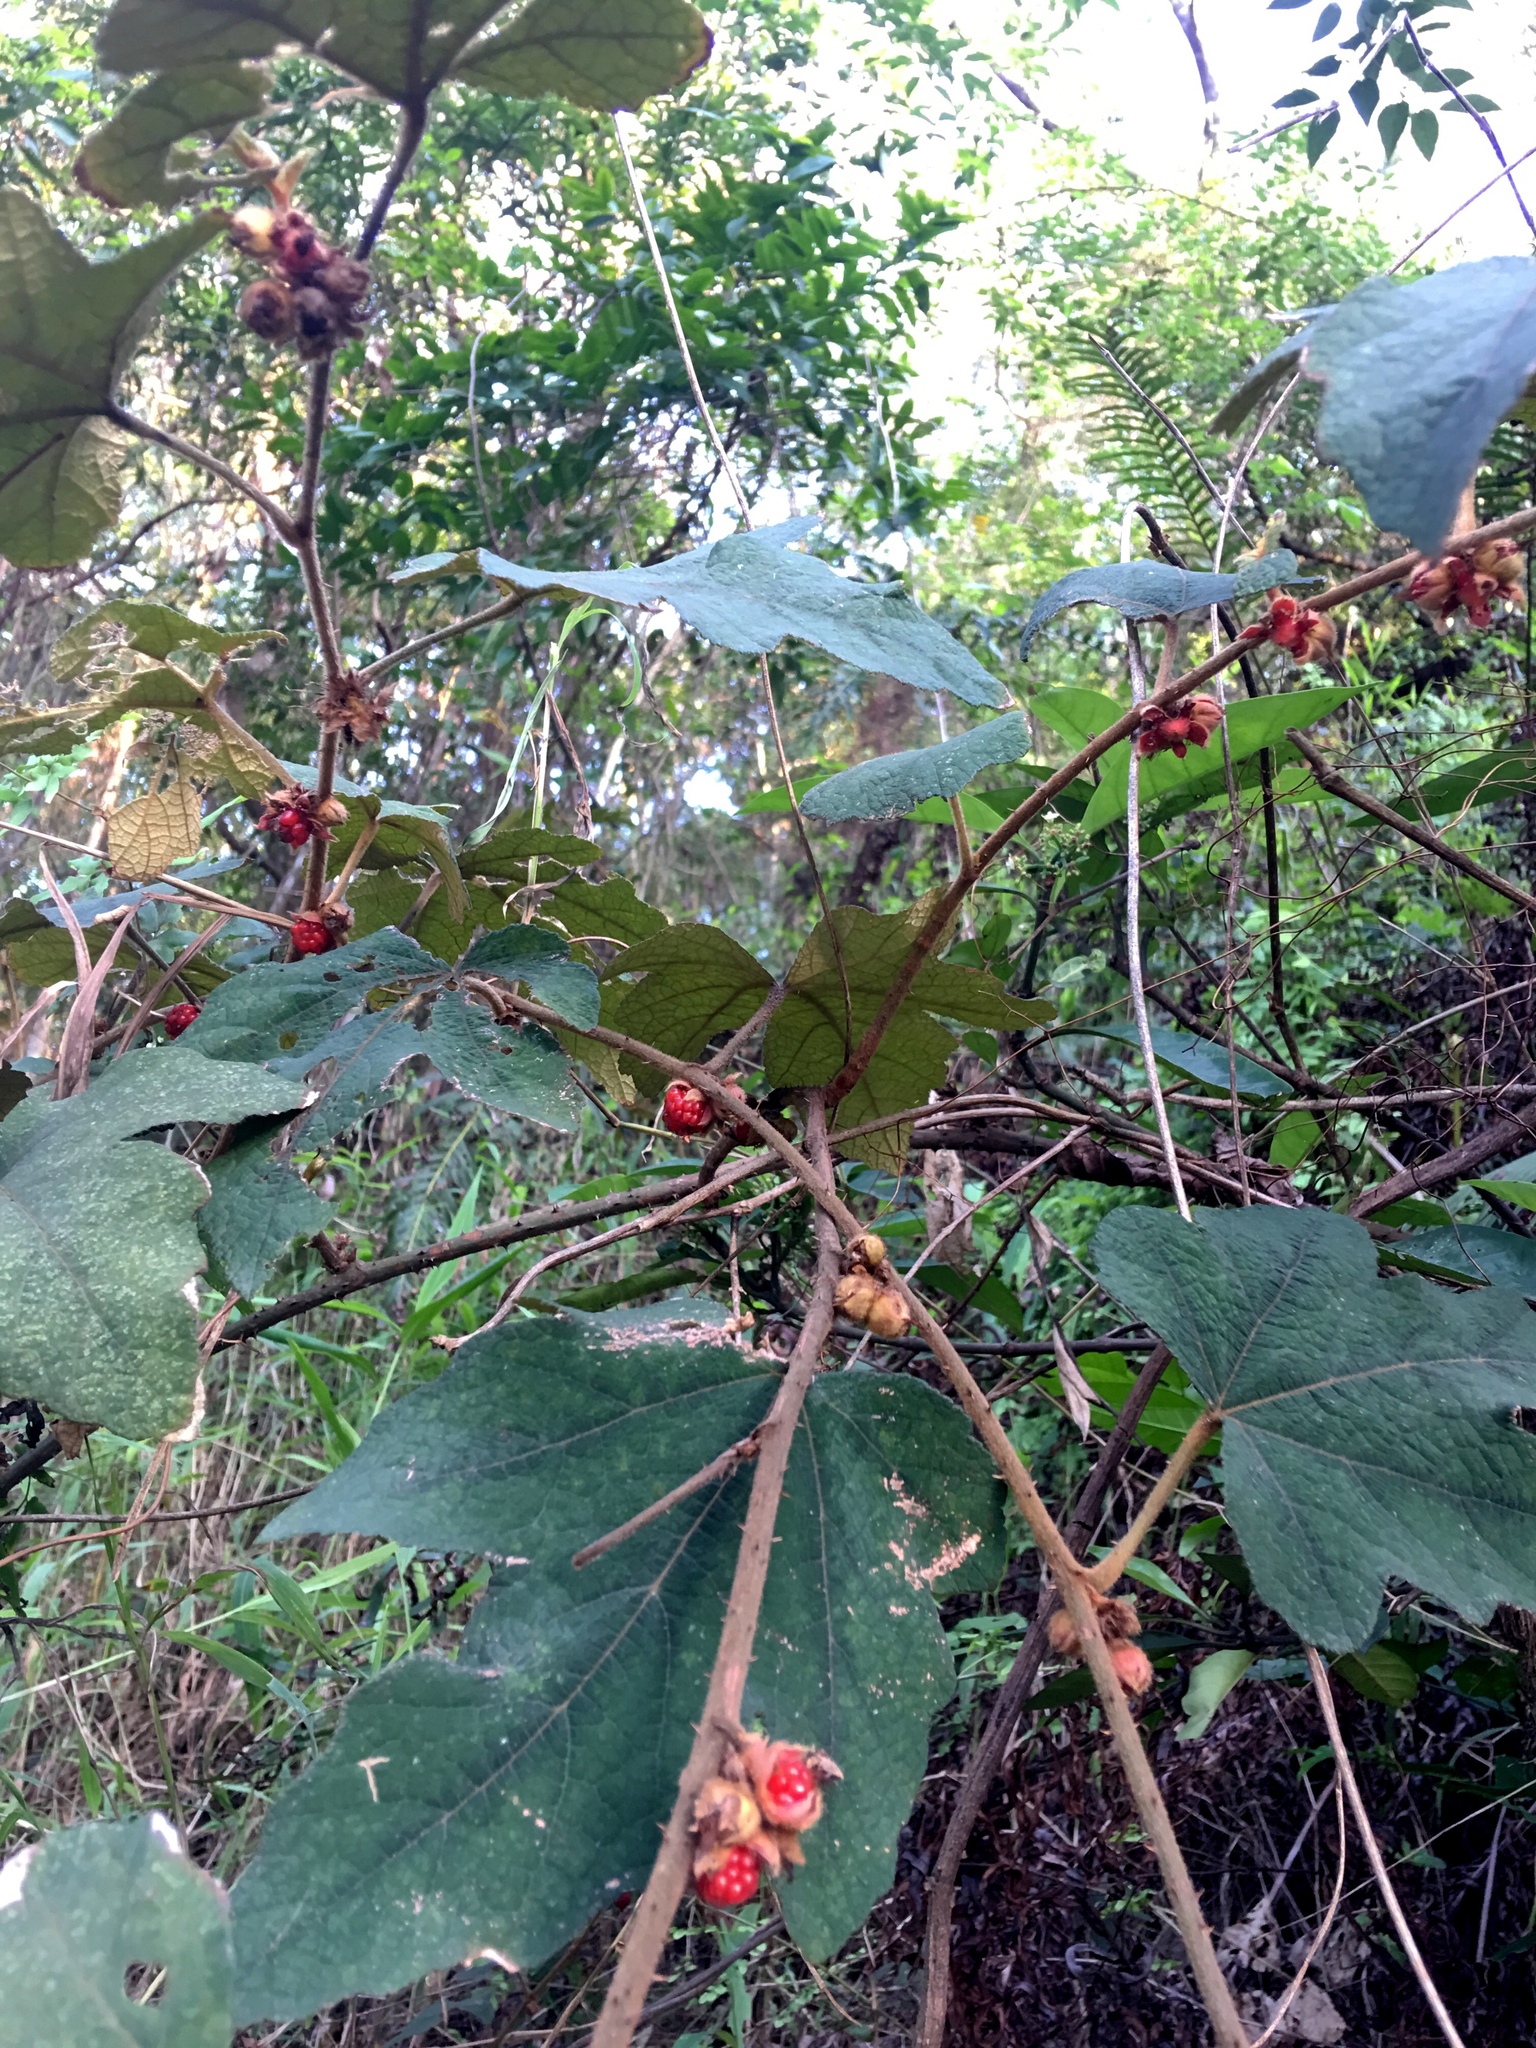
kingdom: Plantae
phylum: Tracheophyta
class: Magnoliopsida
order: Rosales
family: Rosaceae
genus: Rubus
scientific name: Rubus reflexus
